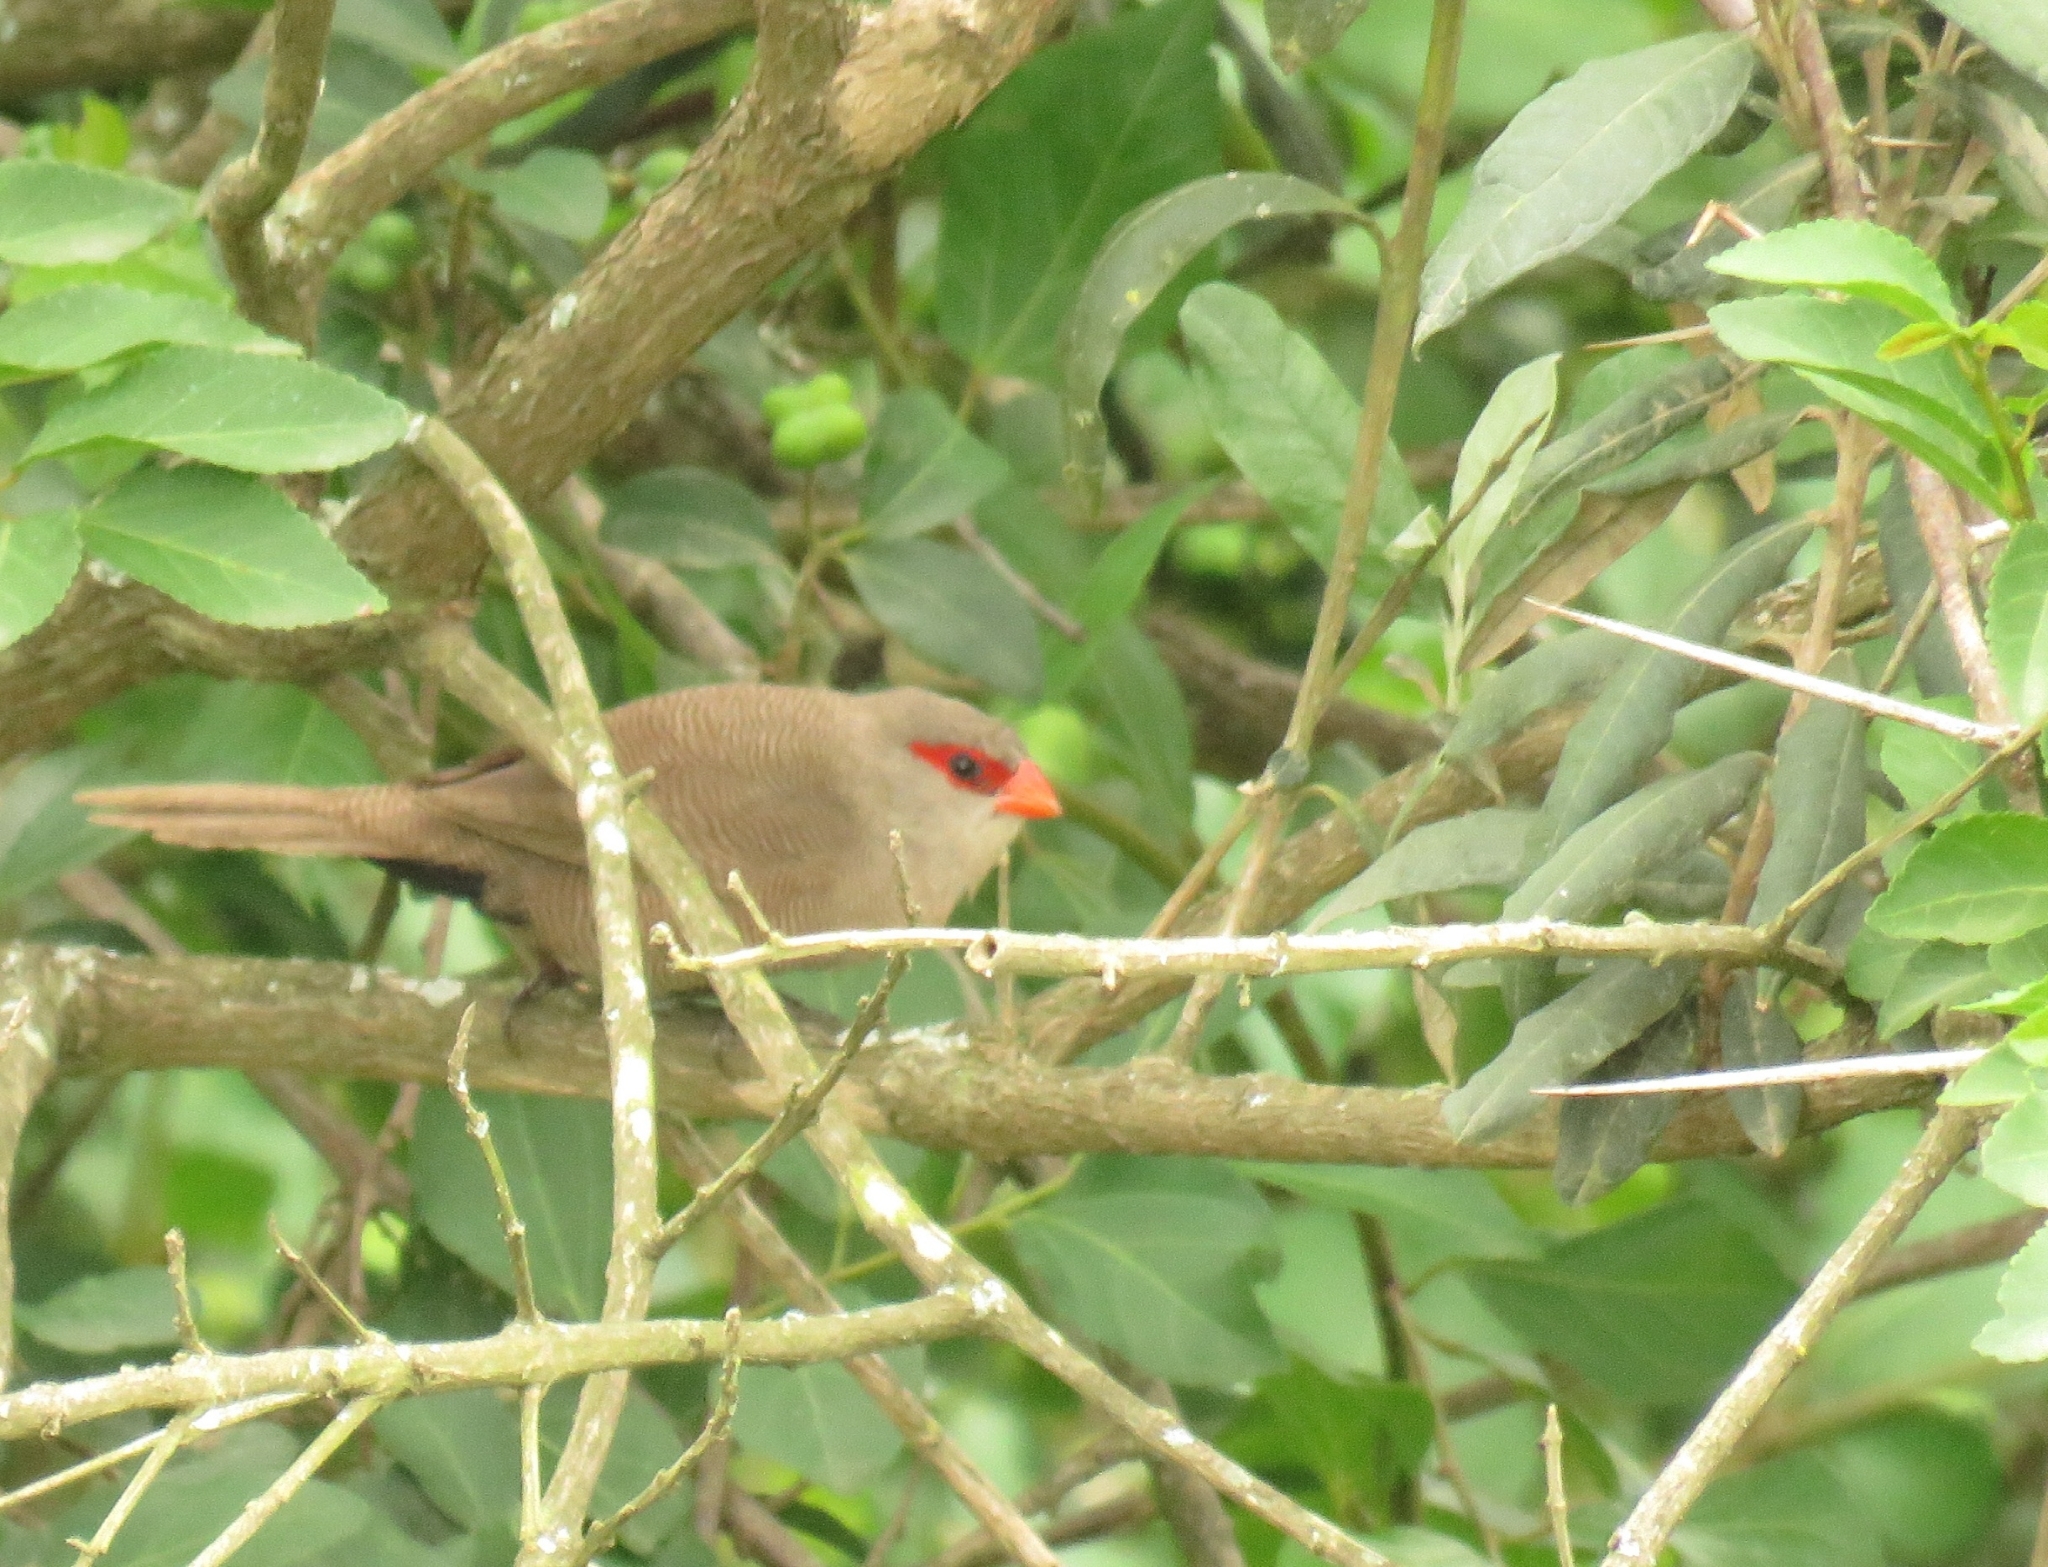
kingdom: Animalia
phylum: Chordata
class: Aves
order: Passeriformes
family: Estrildidae
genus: Estrilda
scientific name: Estrilda astrild
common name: Common waxbill
